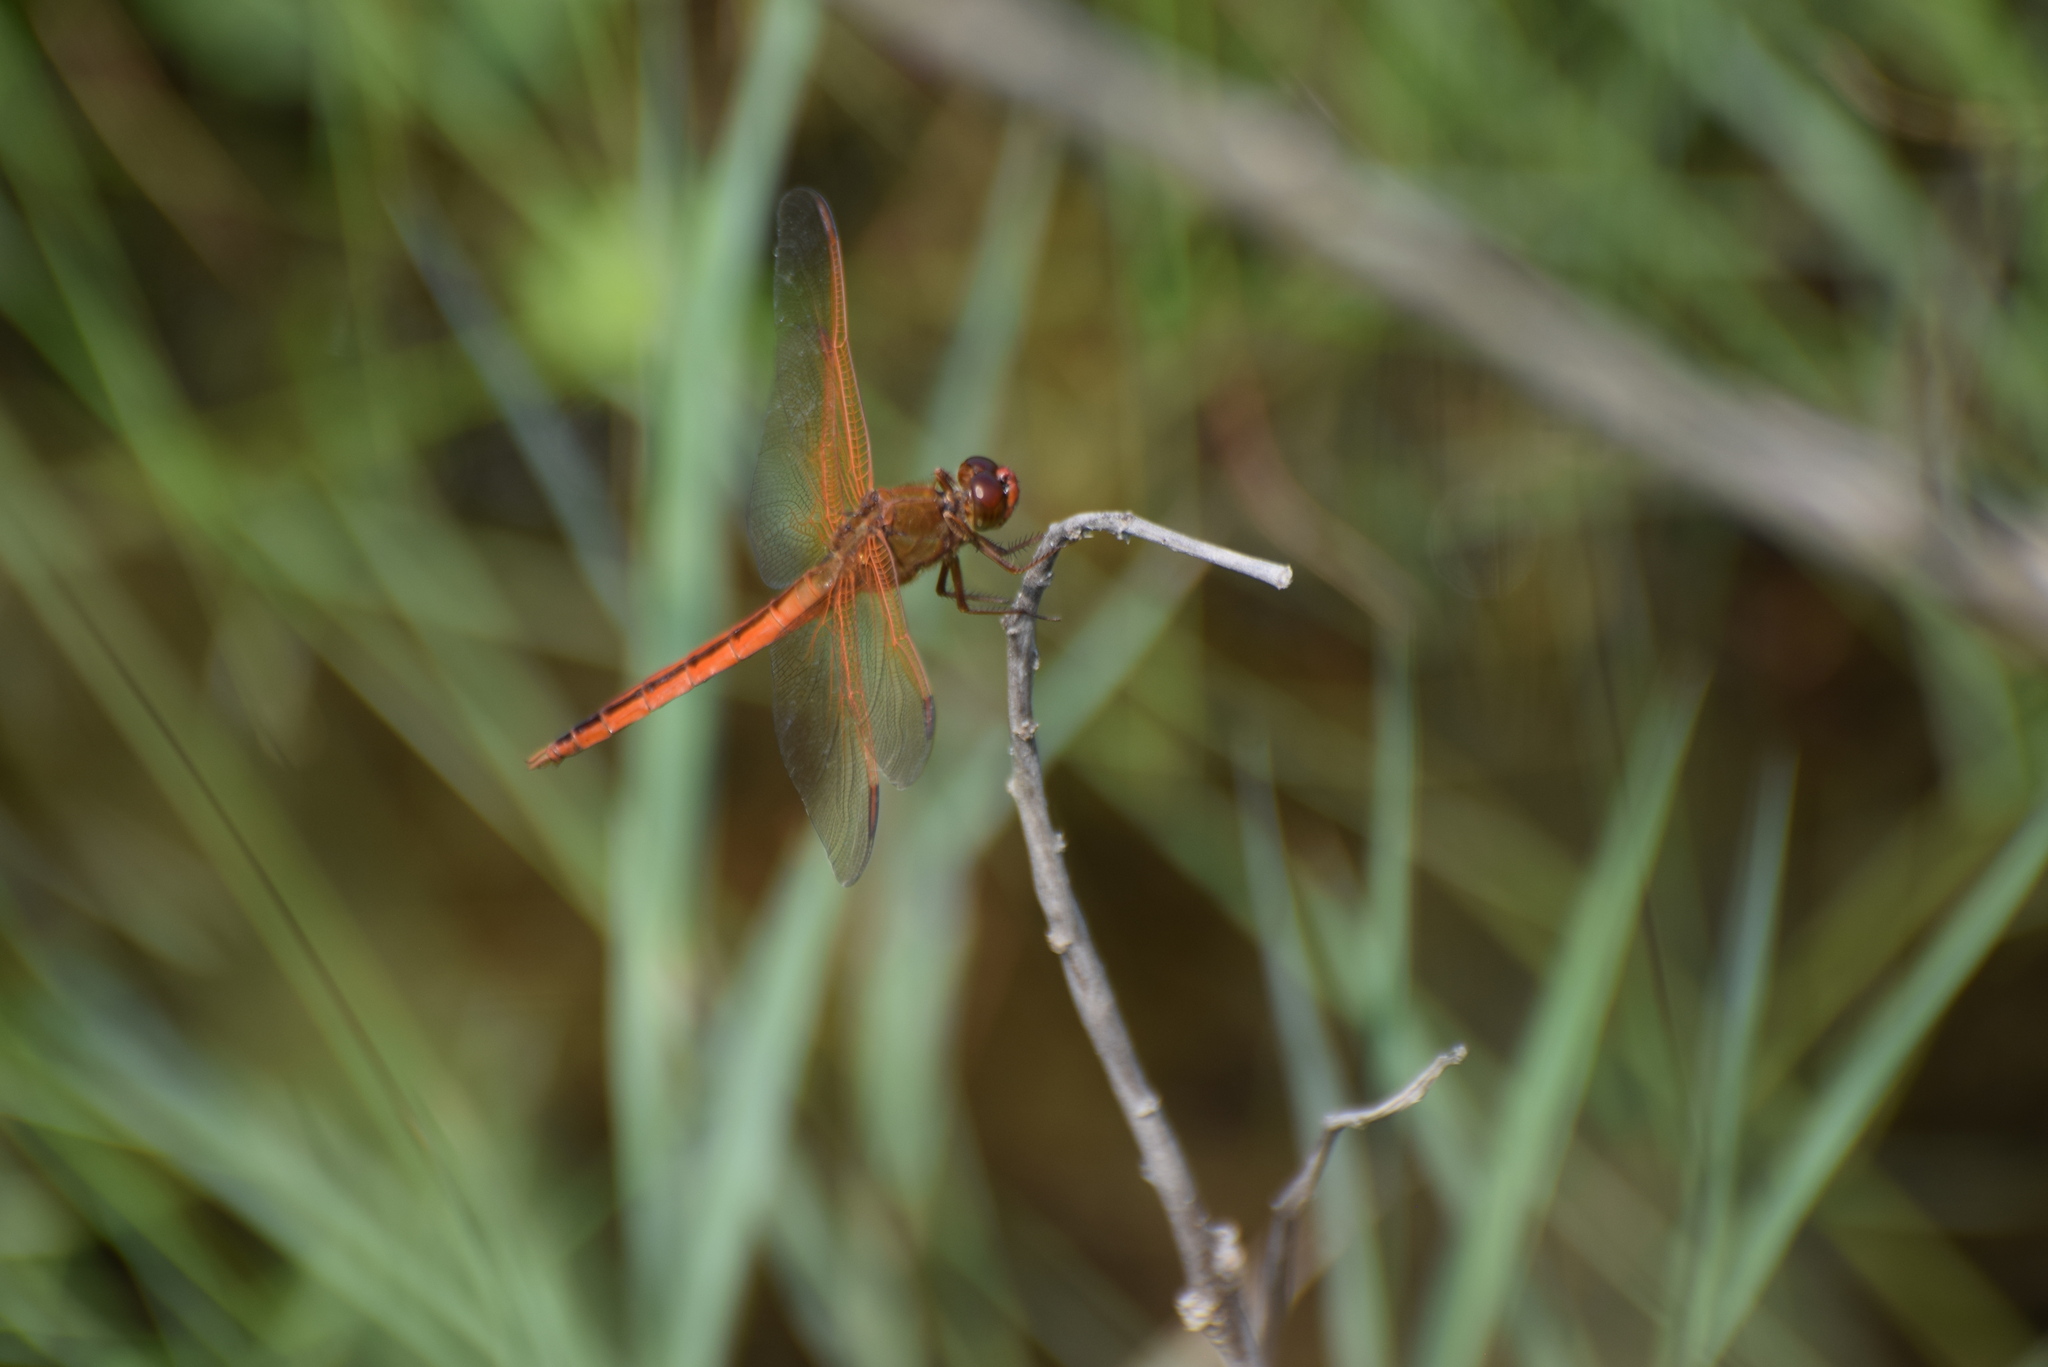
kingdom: Animalia
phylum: Arthropoda
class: Insecta
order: Odonata
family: Libellulidae
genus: Libellula
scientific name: Libellula needhami
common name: Needham's skimmer
